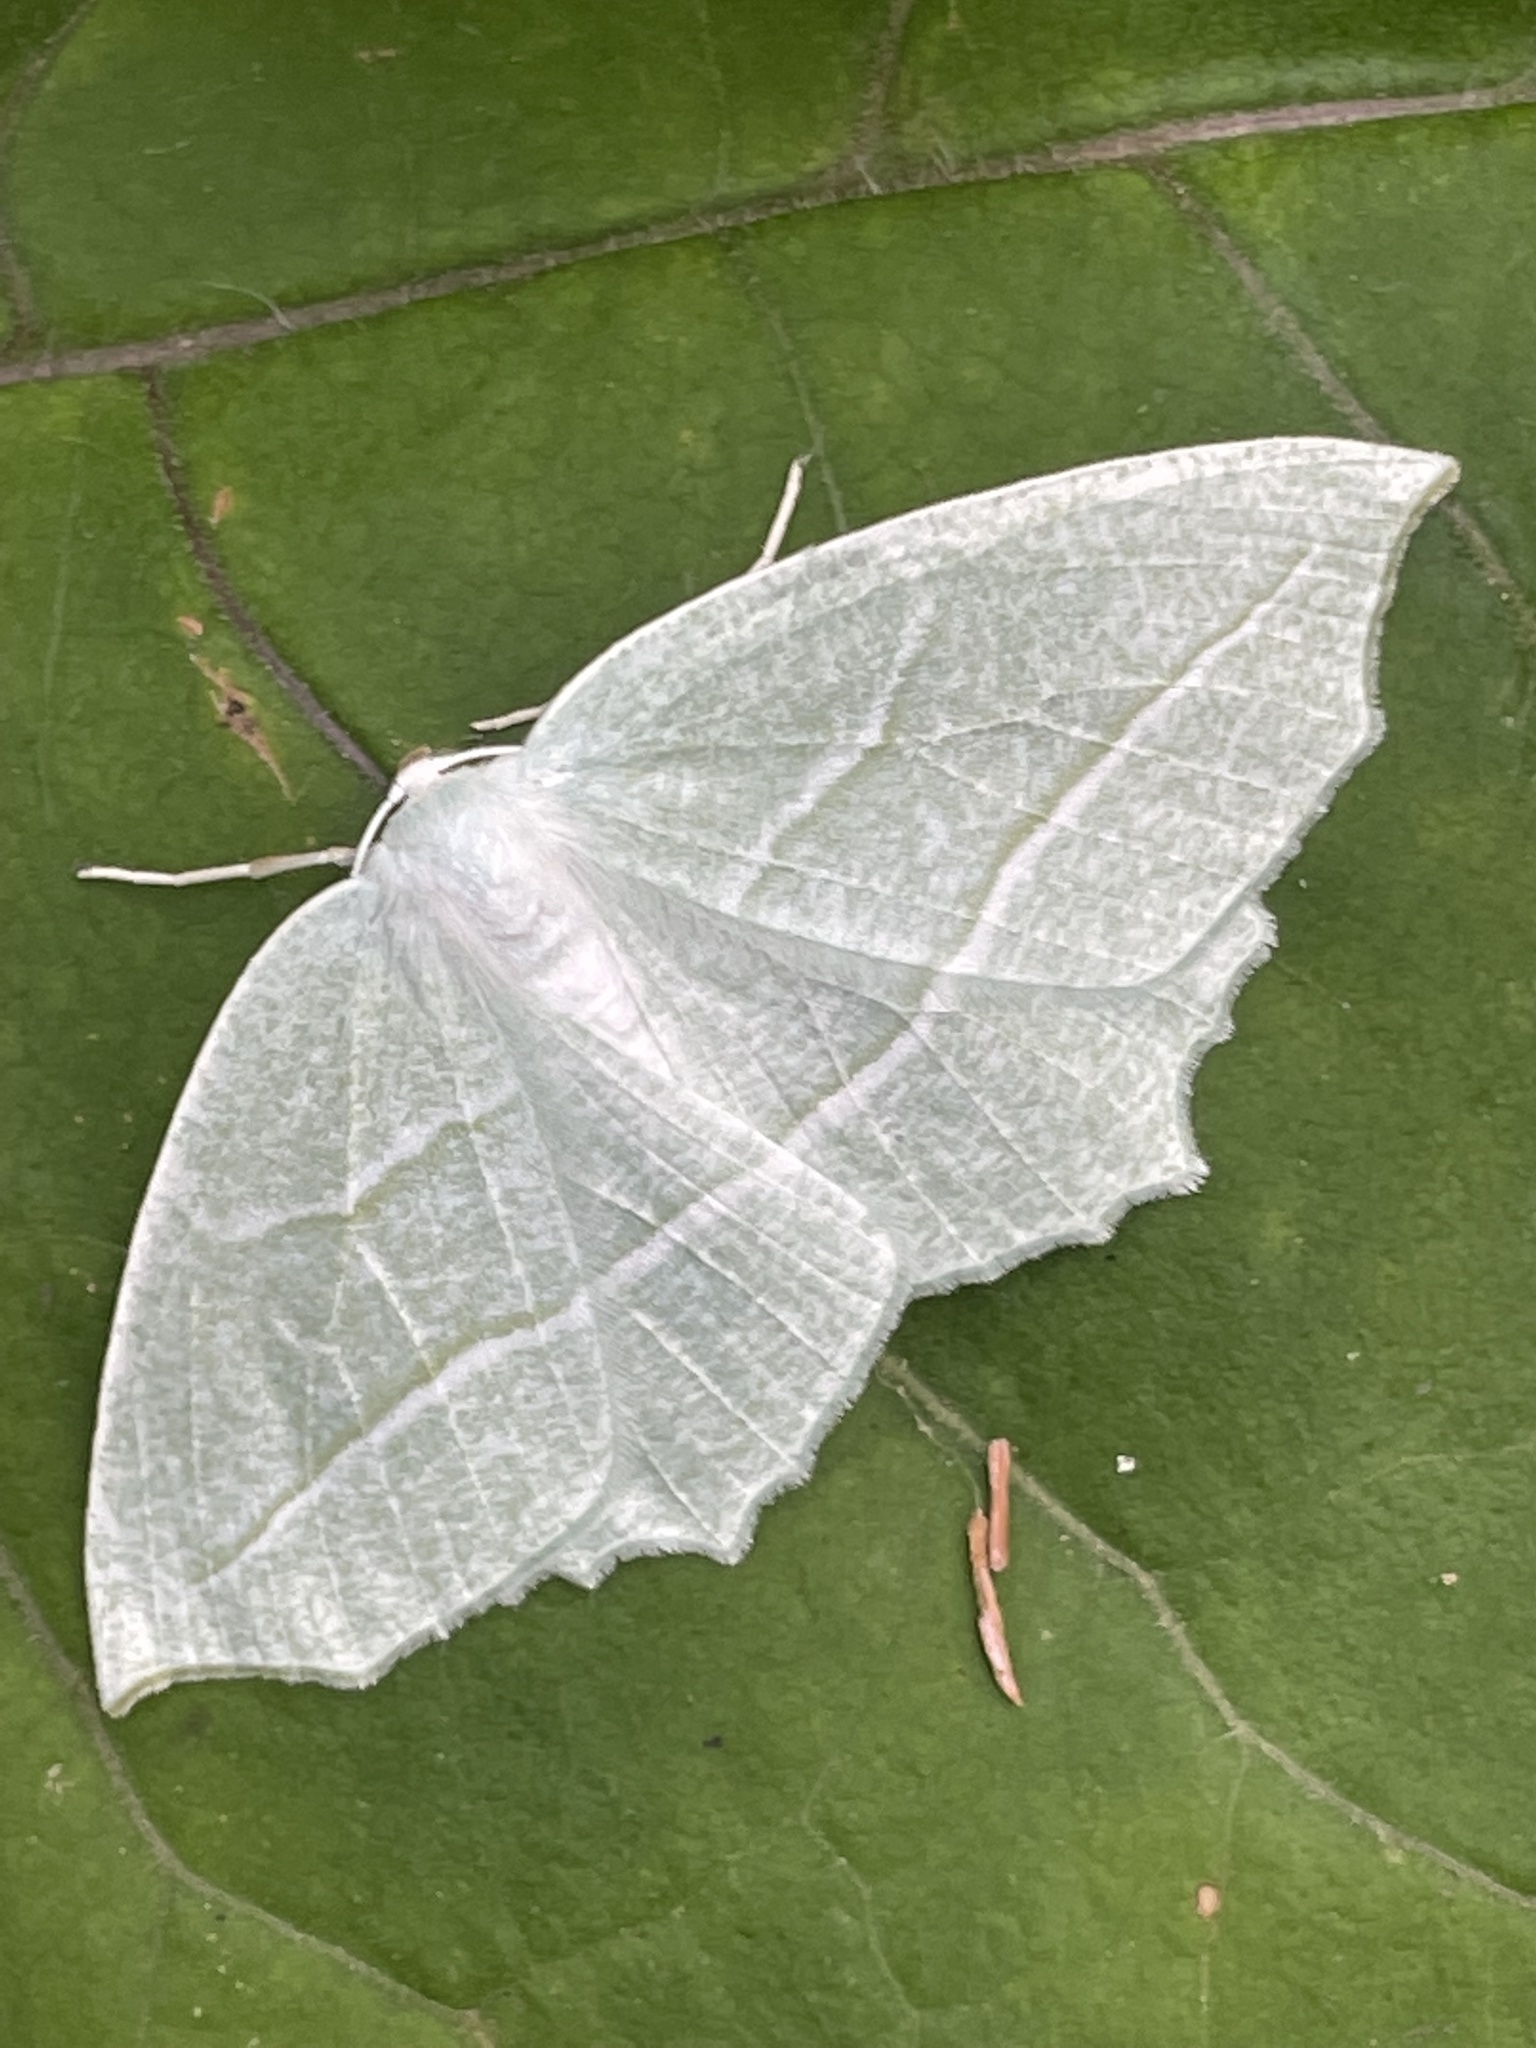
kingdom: Animalia
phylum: Arthropoda
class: Insecta
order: Lepidoptera
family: Geometridae
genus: Campaea
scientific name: Campaea perlata
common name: Fringed looper
